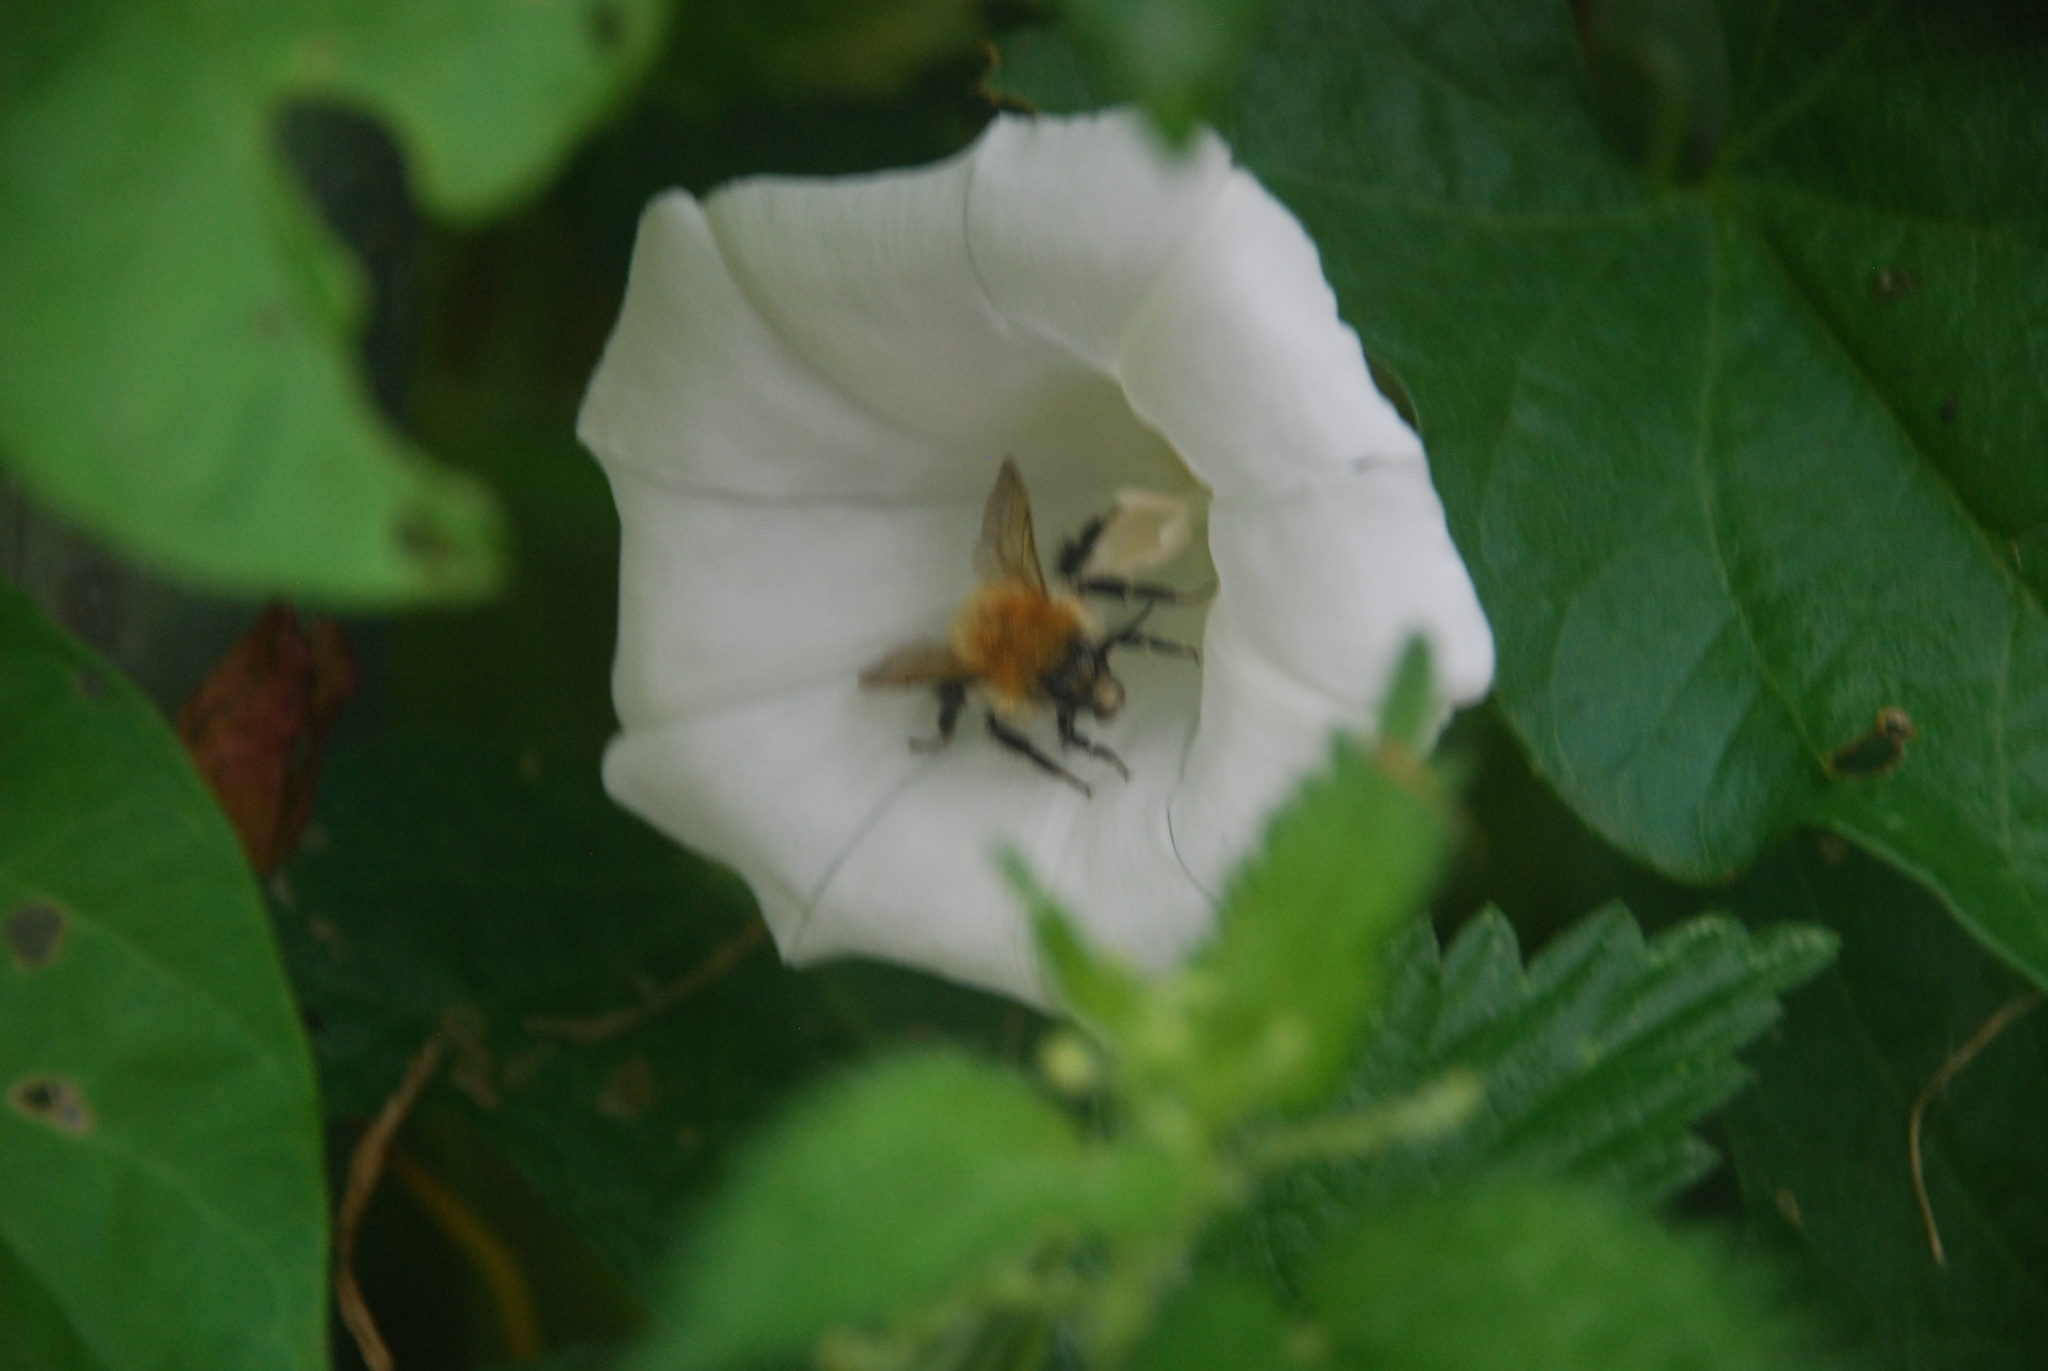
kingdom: Animalia
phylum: Arthropoda
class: Insecta
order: Hymenoptera
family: Apidae
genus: Bombus
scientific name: Bombus pascuorum
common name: Common carder bee
